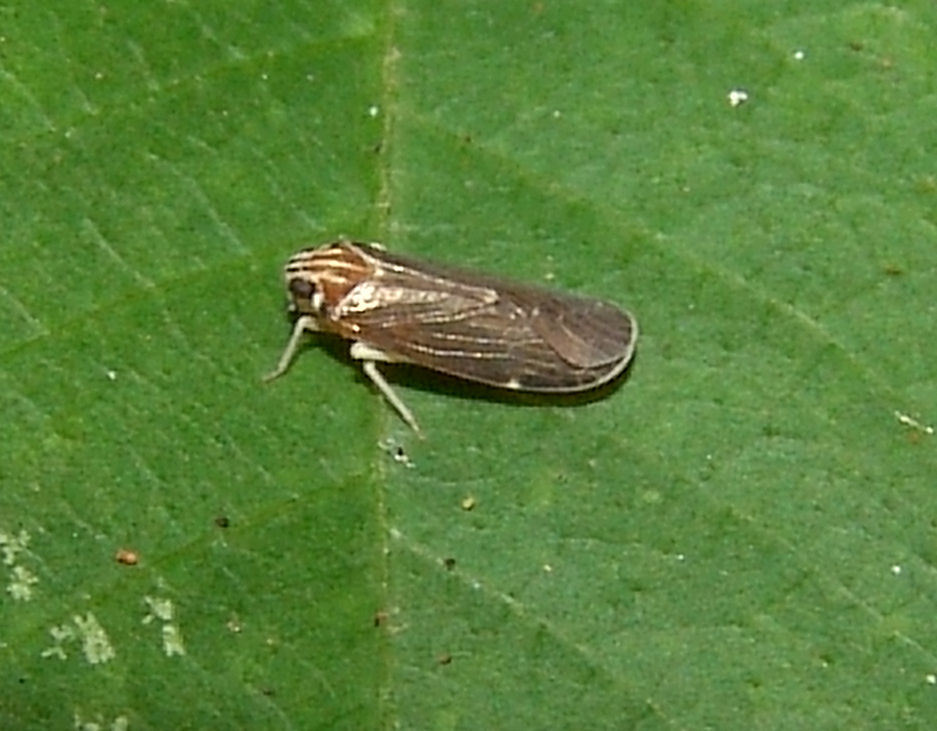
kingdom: Animalia
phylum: Arthropoda
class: Insecta
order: Hemiptera
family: Achilidae
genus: Synecdoche
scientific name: Synecdoche impunctata
